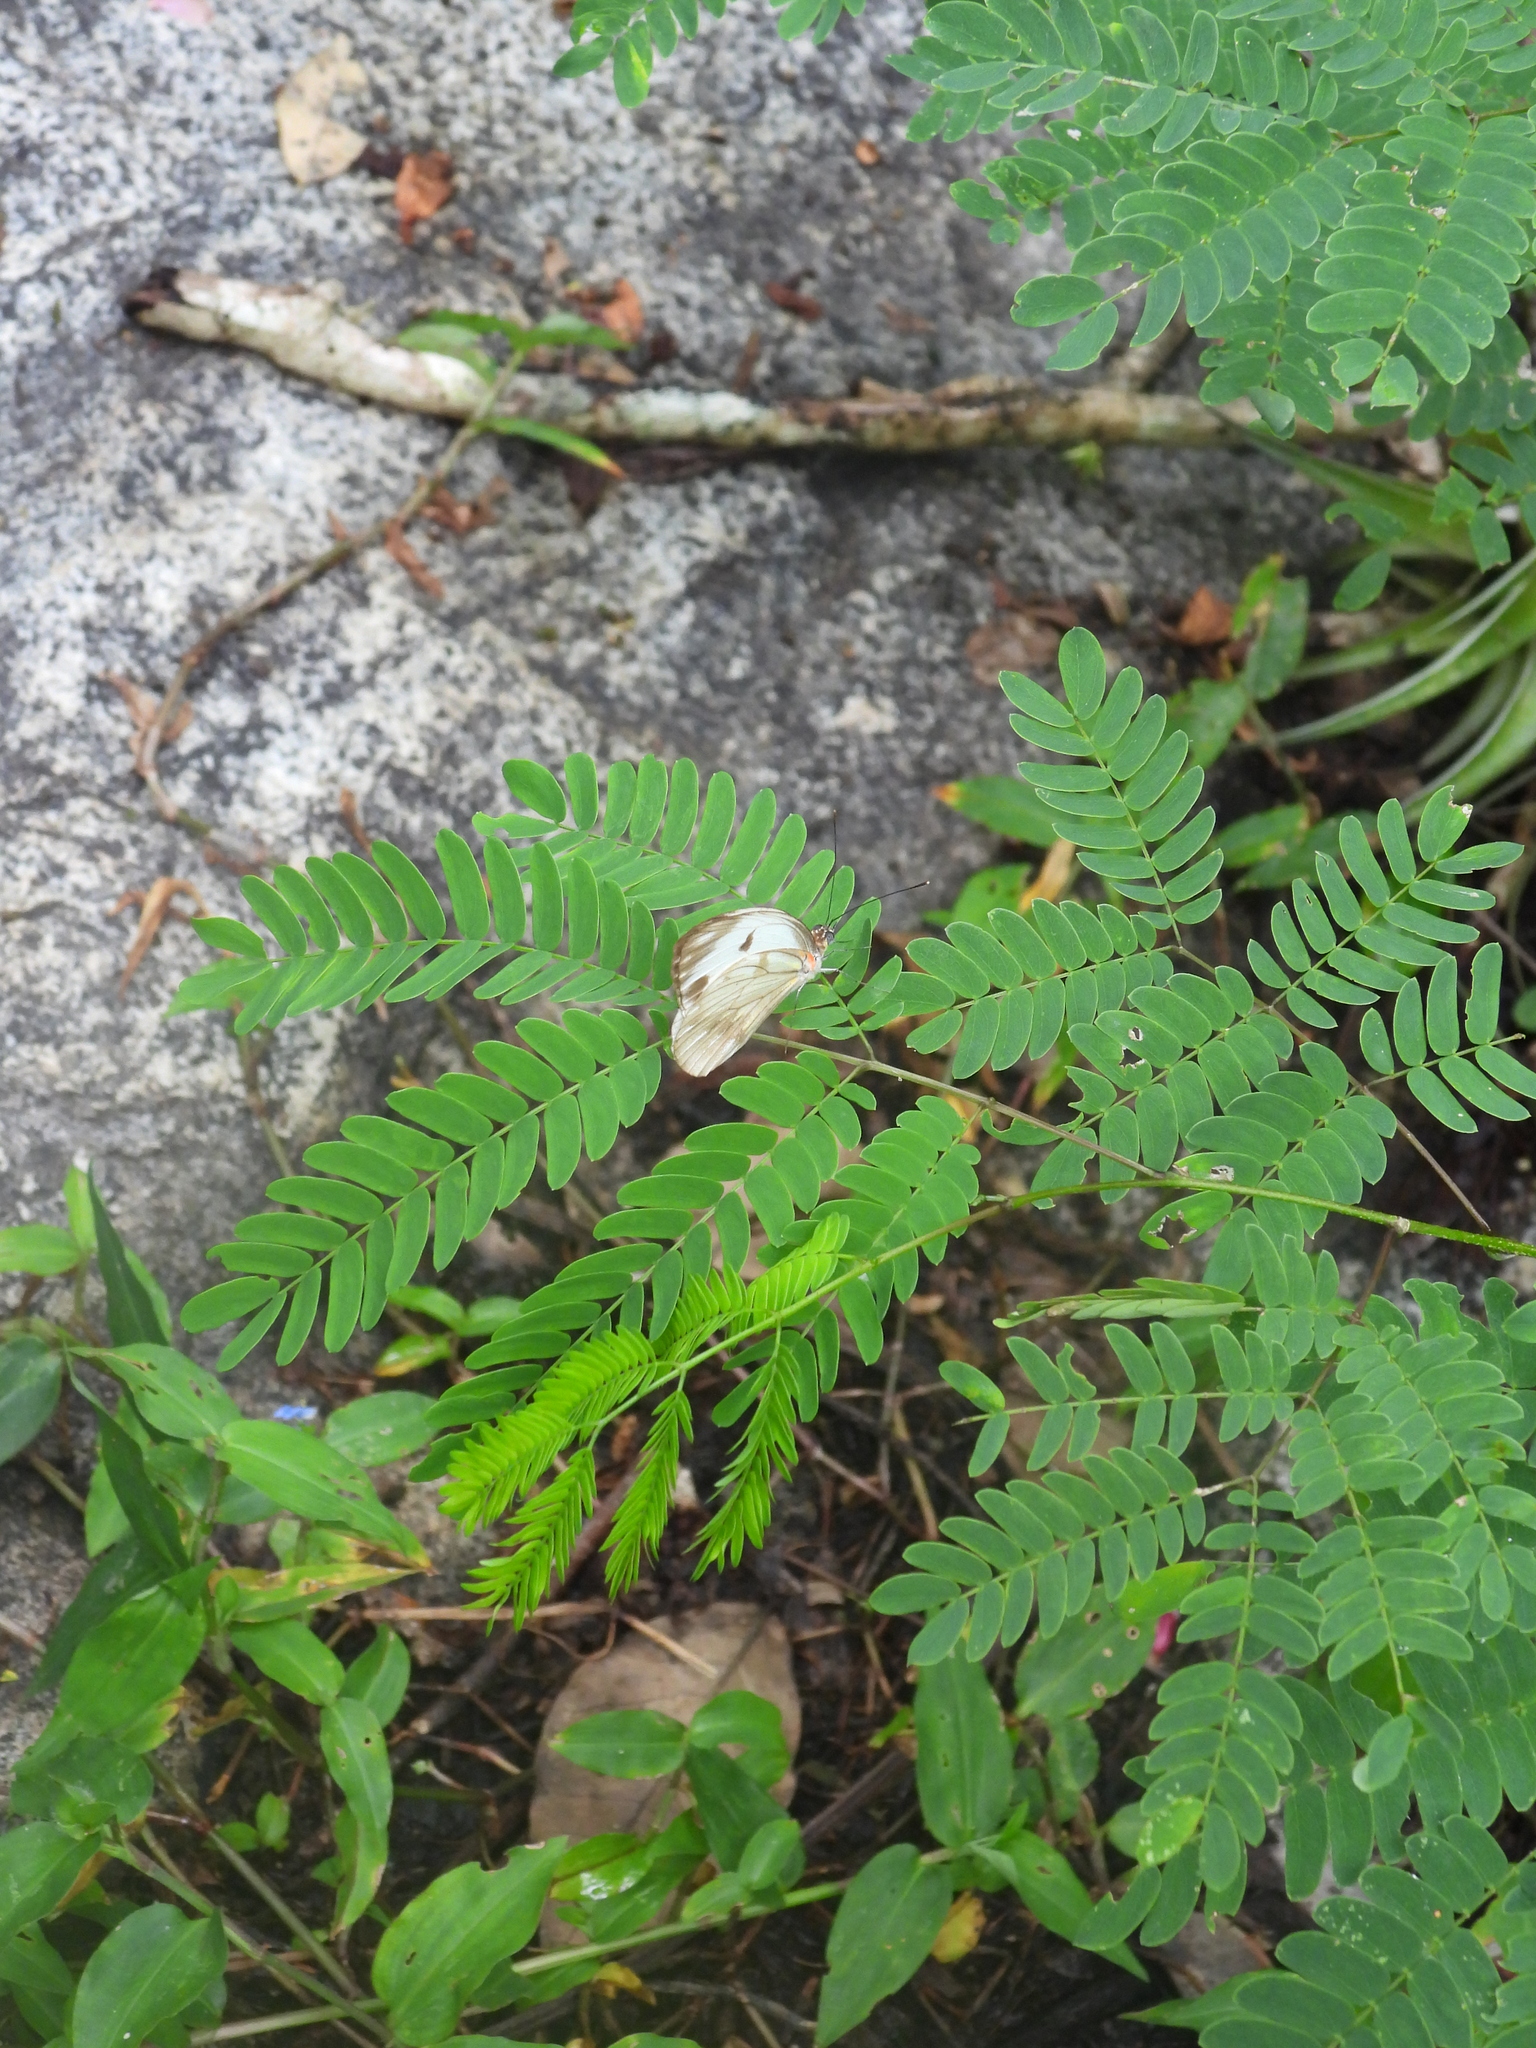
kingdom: Animalia
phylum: Arthropoda
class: Insecta
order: Lepidoptera
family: Pieridae
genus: Pieriballia
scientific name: Pieriballia viardi
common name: Painted white
